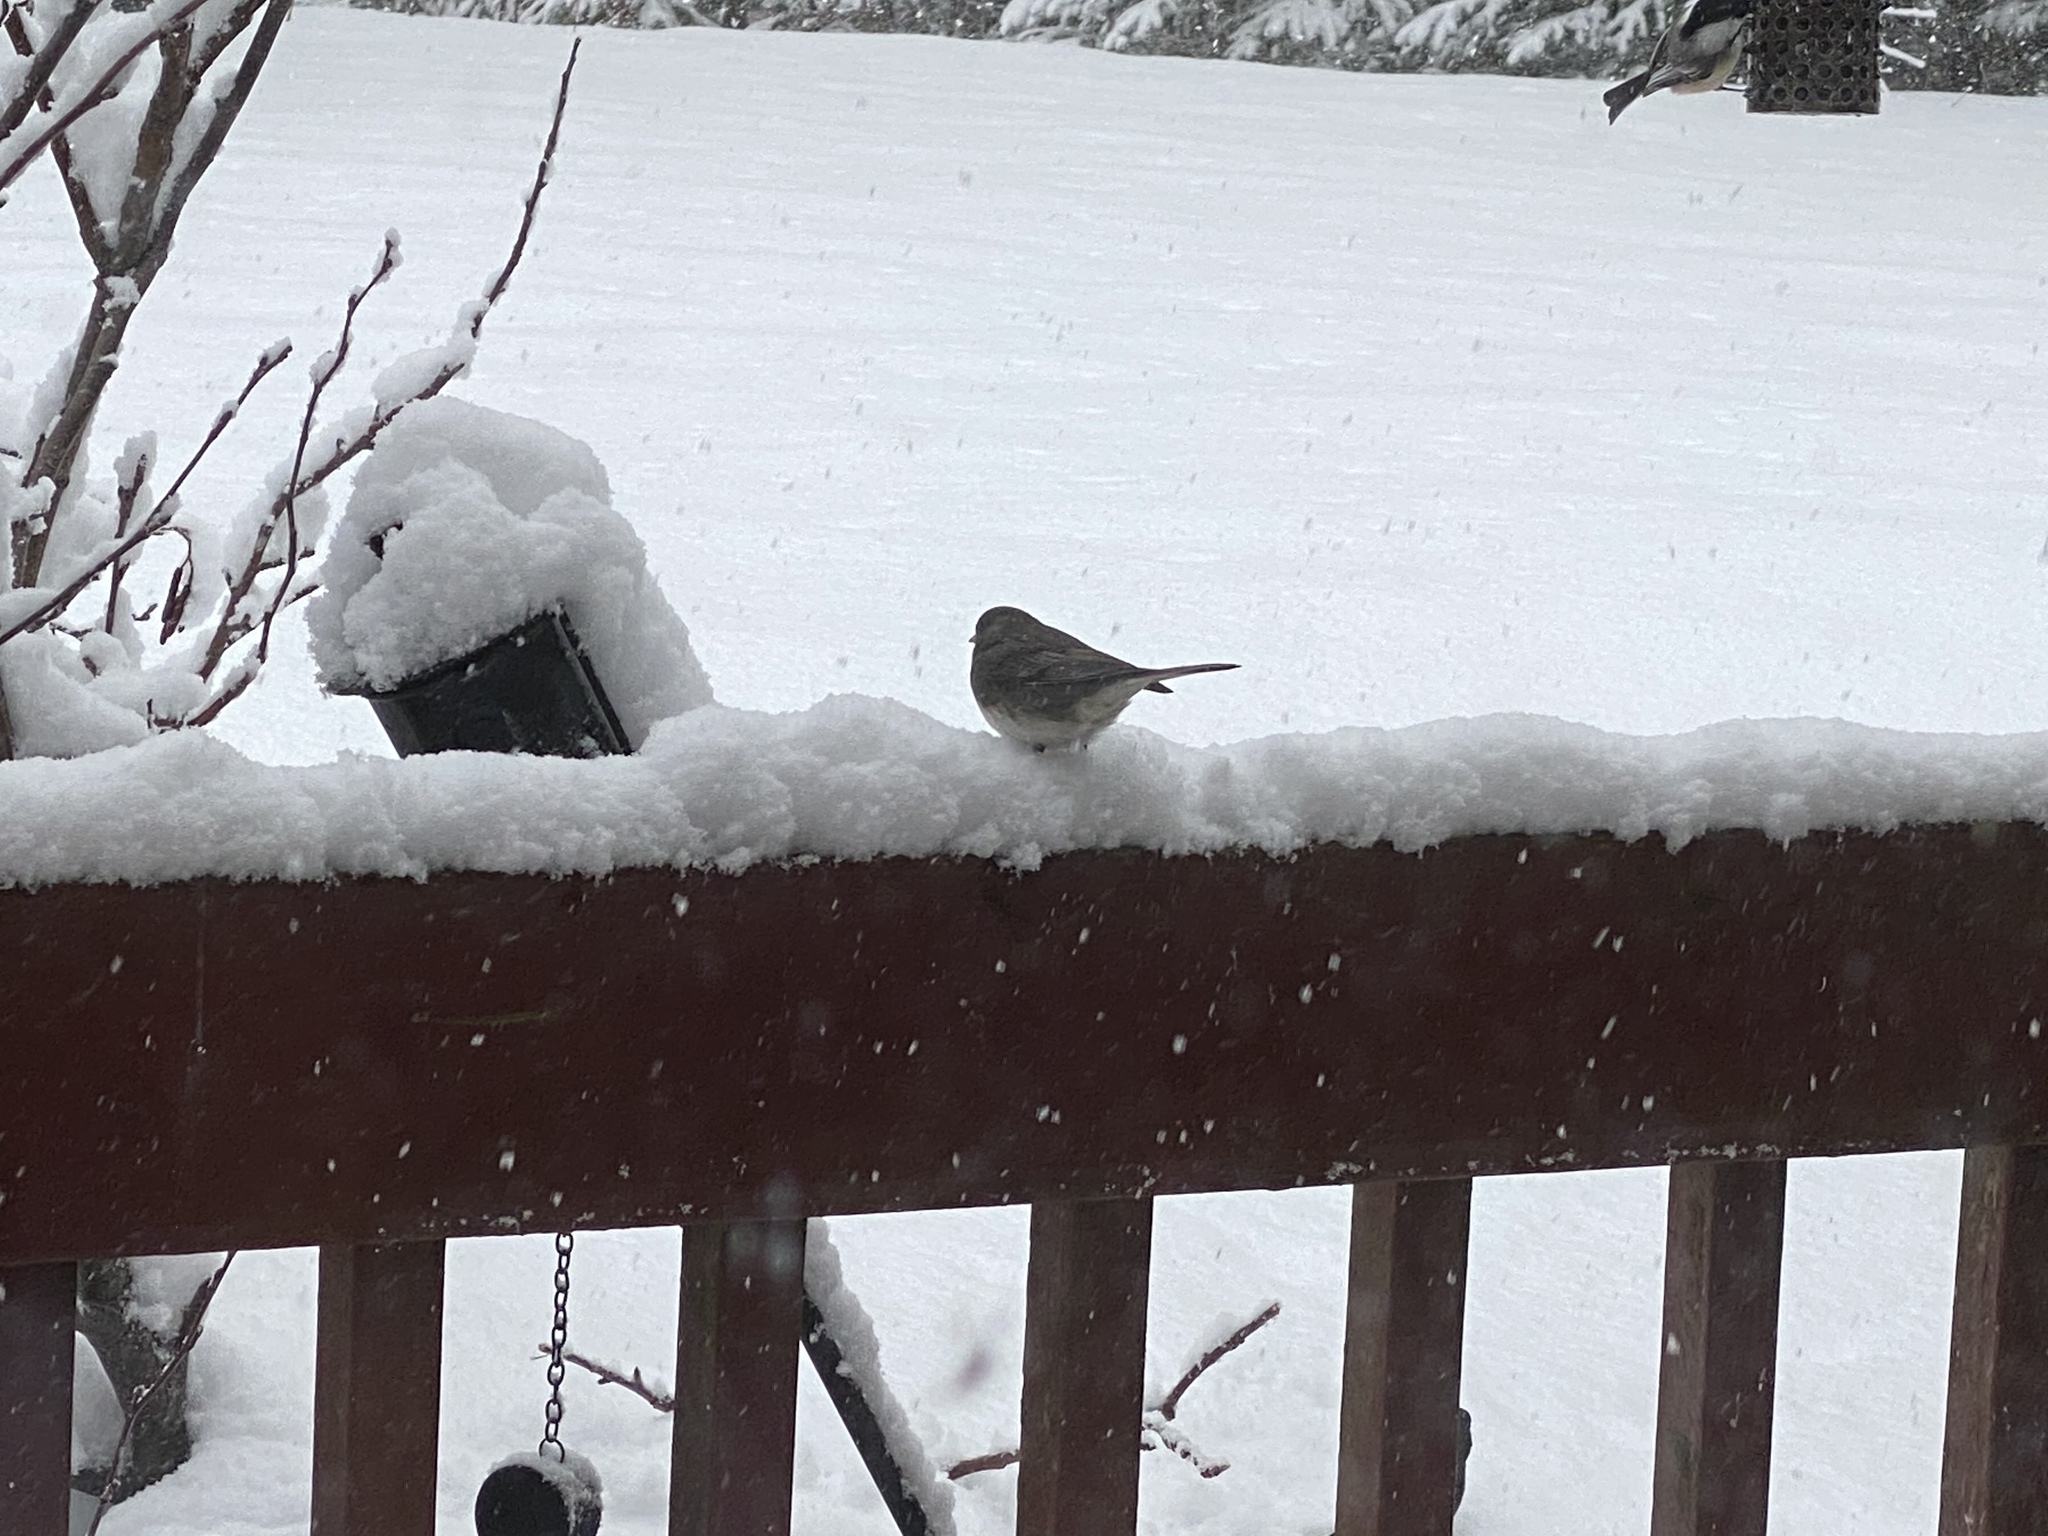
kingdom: Animalia
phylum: Chordata
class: Aves
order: Passeriformes
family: Passerellidae
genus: Junco
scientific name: Junco hyemalis
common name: Dark-eyed junco
